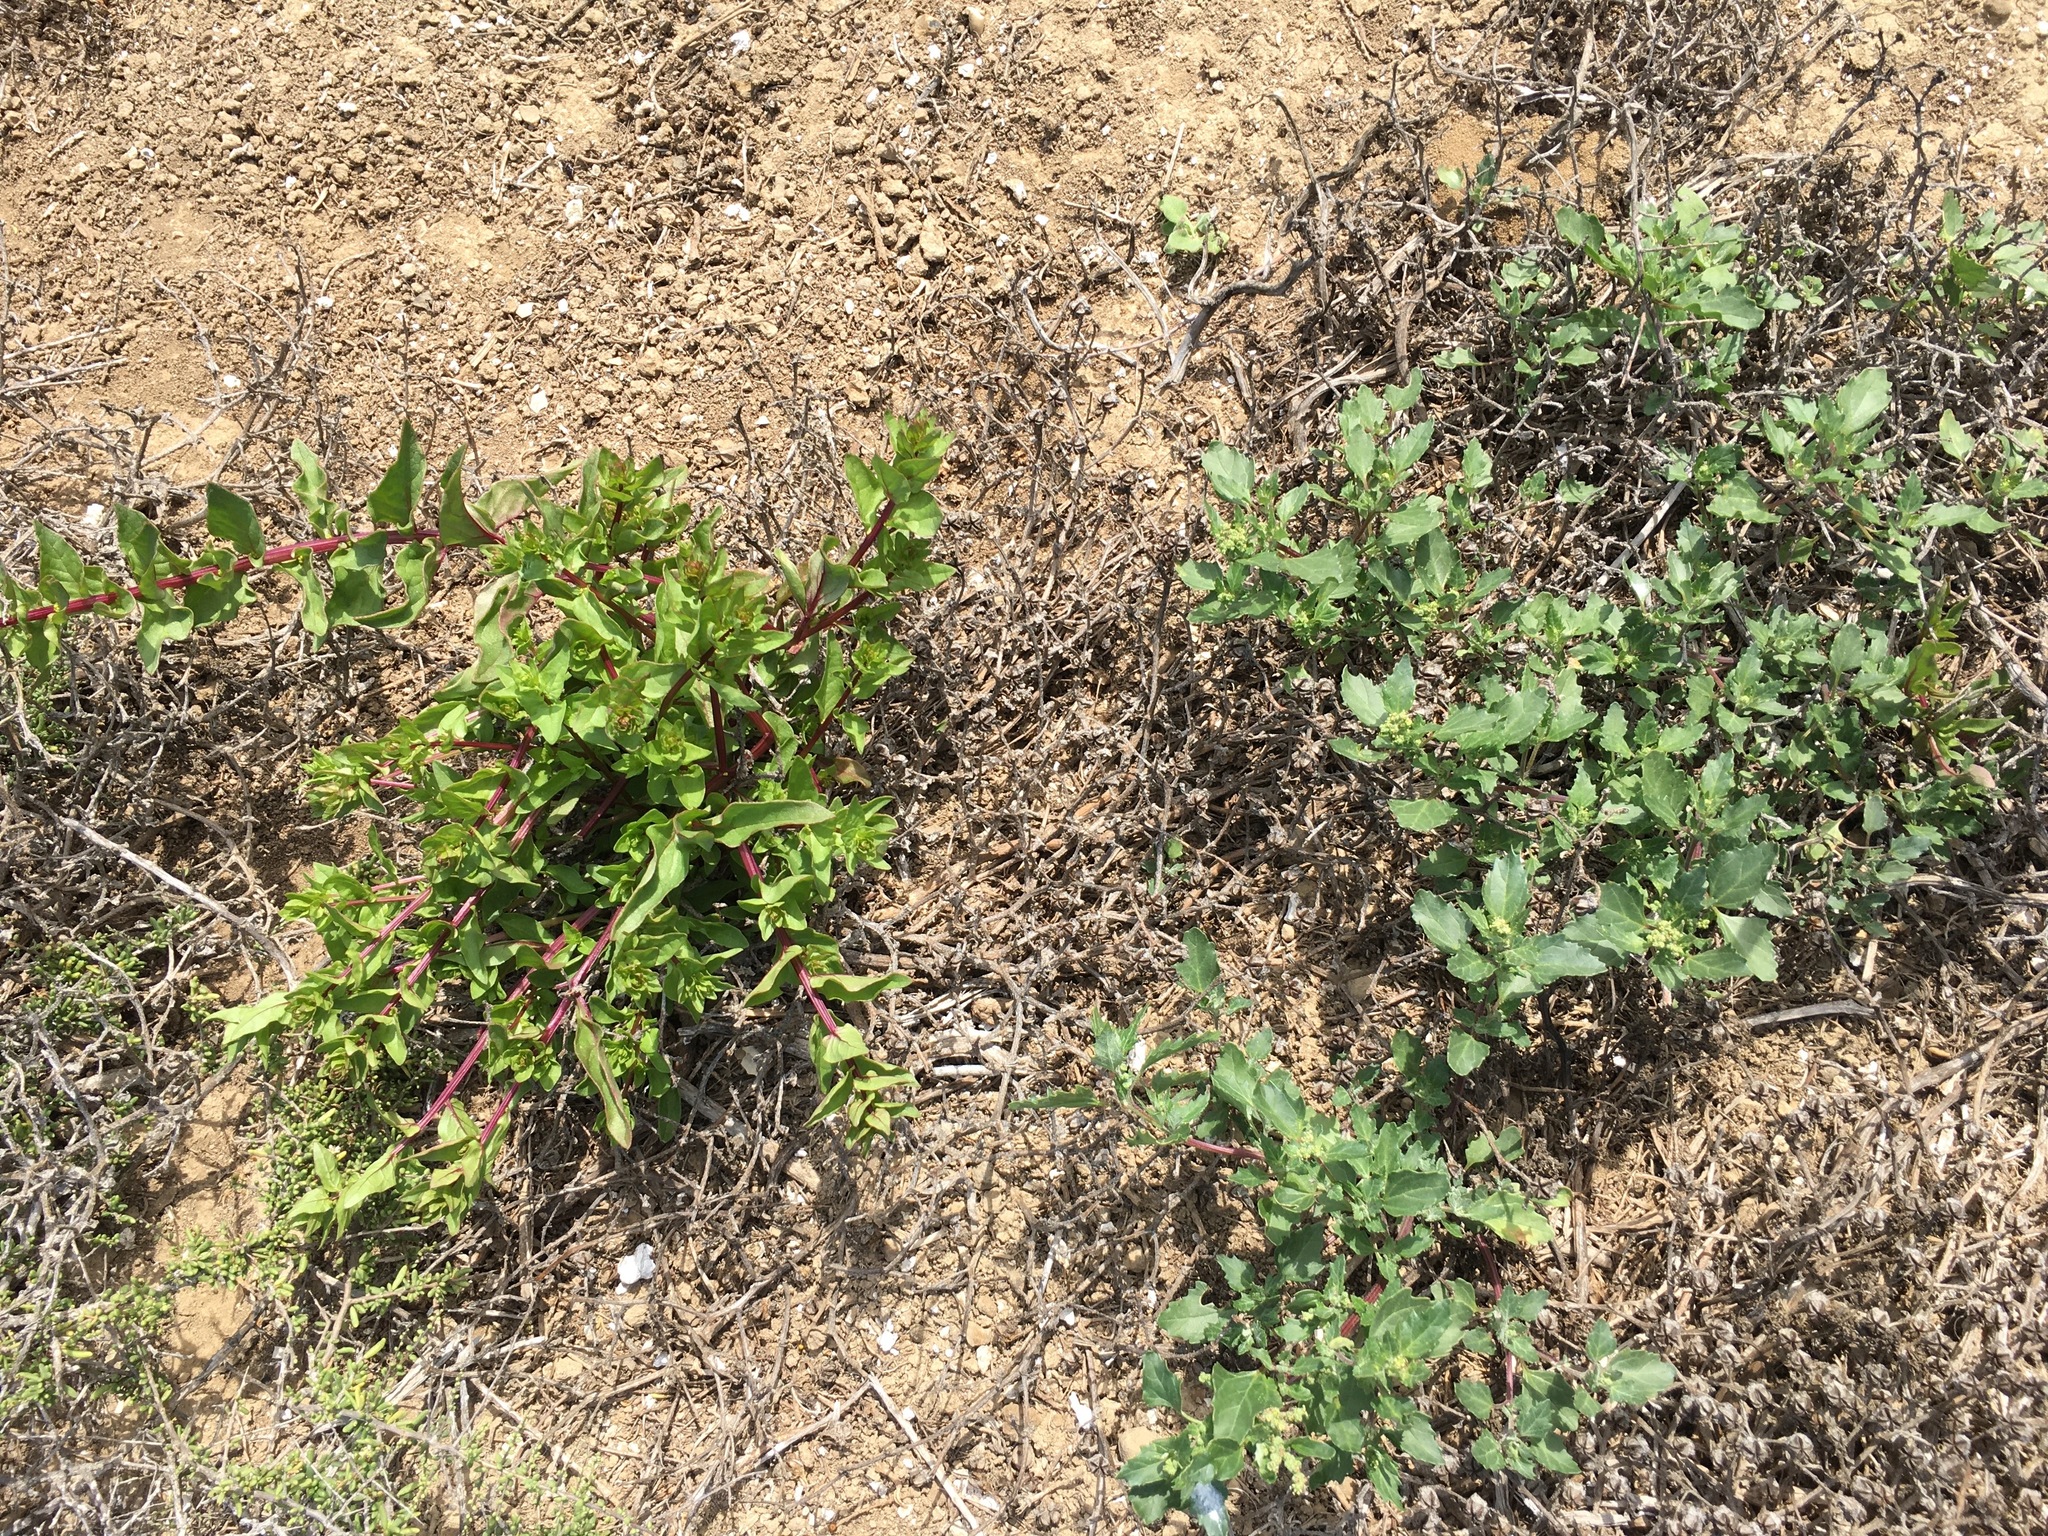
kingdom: Plantae
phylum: Tracheophyta
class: Magnoliopsida
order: Caryophyllales
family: Amaranthaceae
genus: Aphanisma
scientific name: Aphanisma blitoides
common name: Aphanisma
